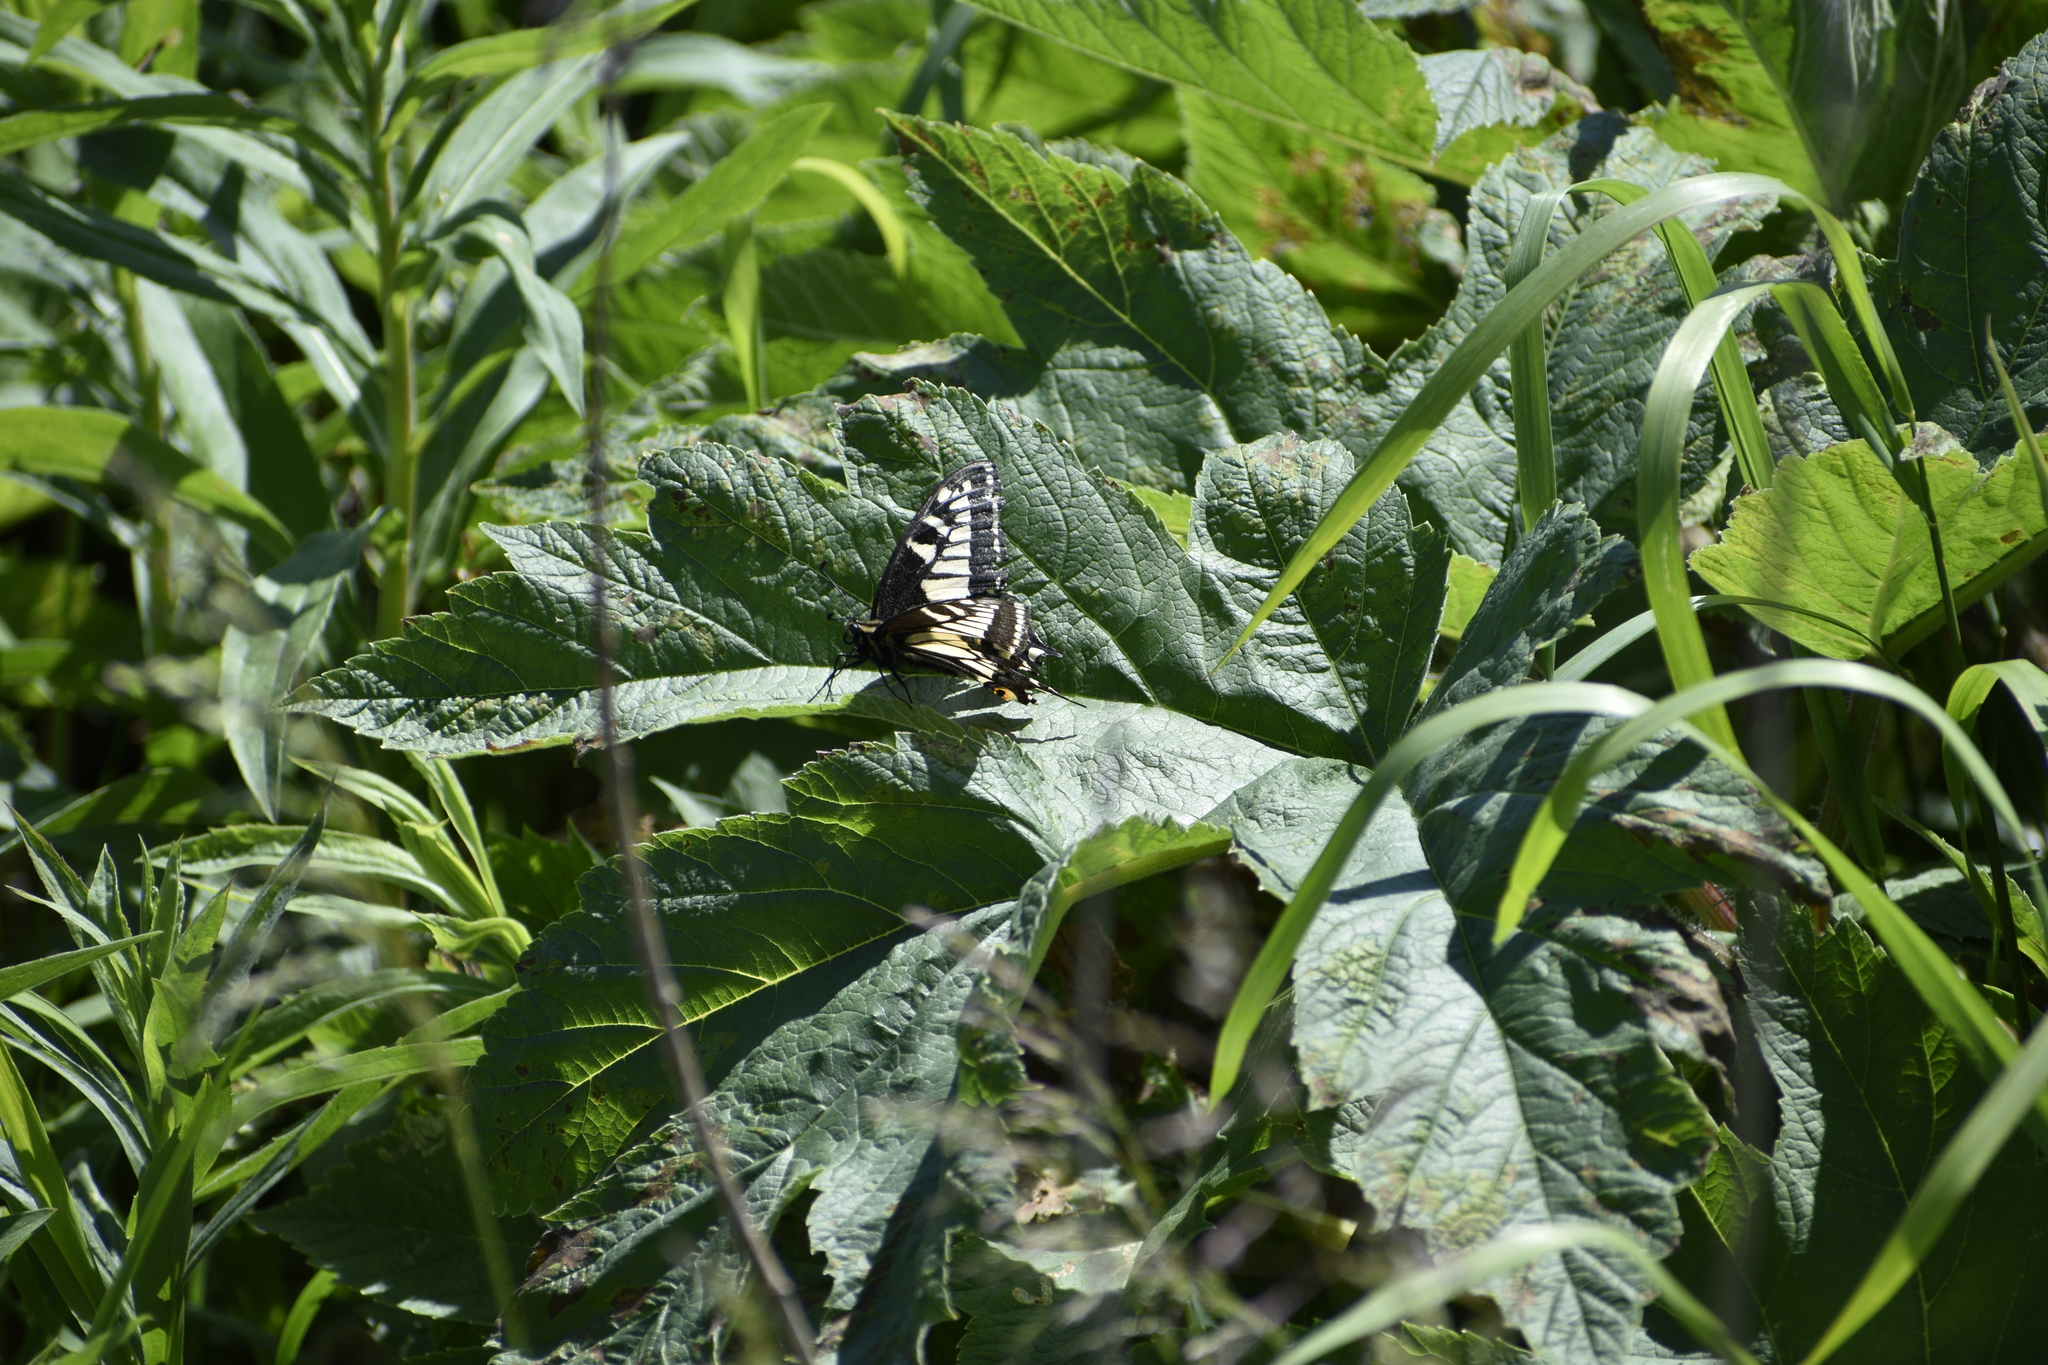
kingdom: Animalia
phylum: Arthropoda
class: Insecta
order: Lepidoptera
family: Papilionidae
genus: Papilio
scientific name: Papilio zelicaon
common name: Anise swallowtail
